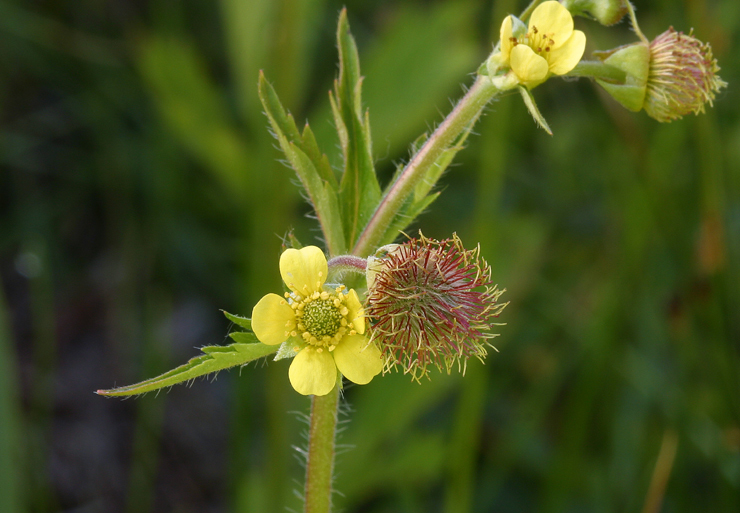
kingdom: Plantae
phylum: Tracheophyta
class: Magnoliopsida
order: Rosales
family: Rosaceae
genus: Geum
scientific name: Geum macrophyllum
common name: Large-leaved avens
